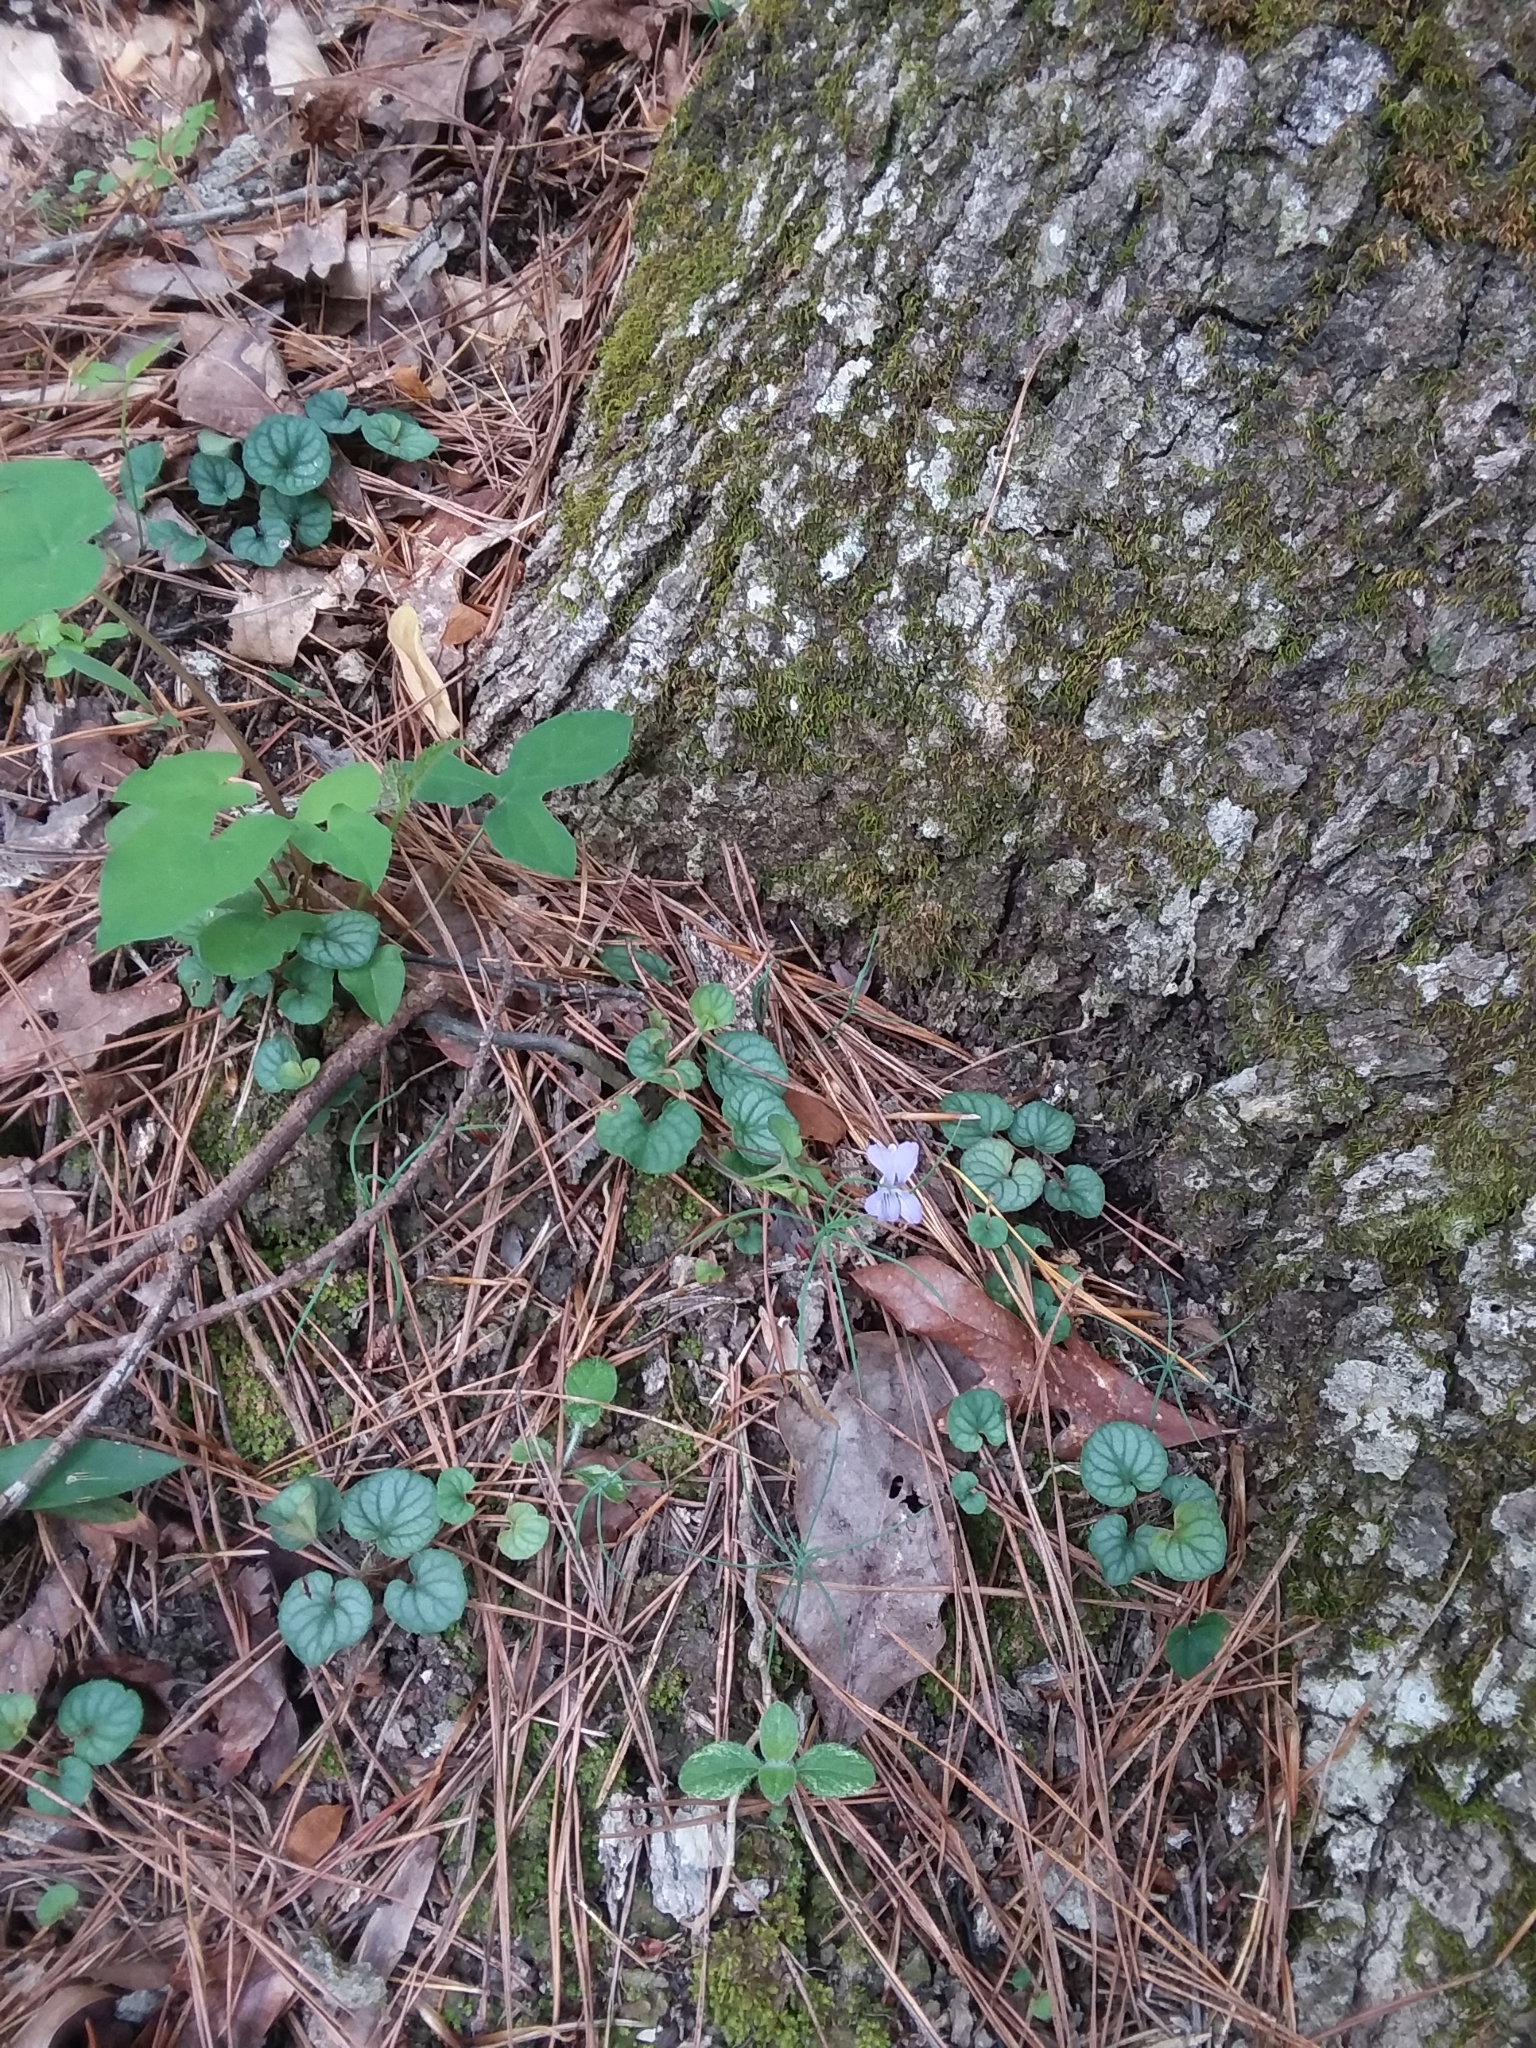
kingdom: Plantae
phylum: Tracheophyta
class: Magnoliopsida
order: Malpighiales
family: Violaceae
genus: Viola
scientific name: Viola walteri
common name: Prostrate southern violet
